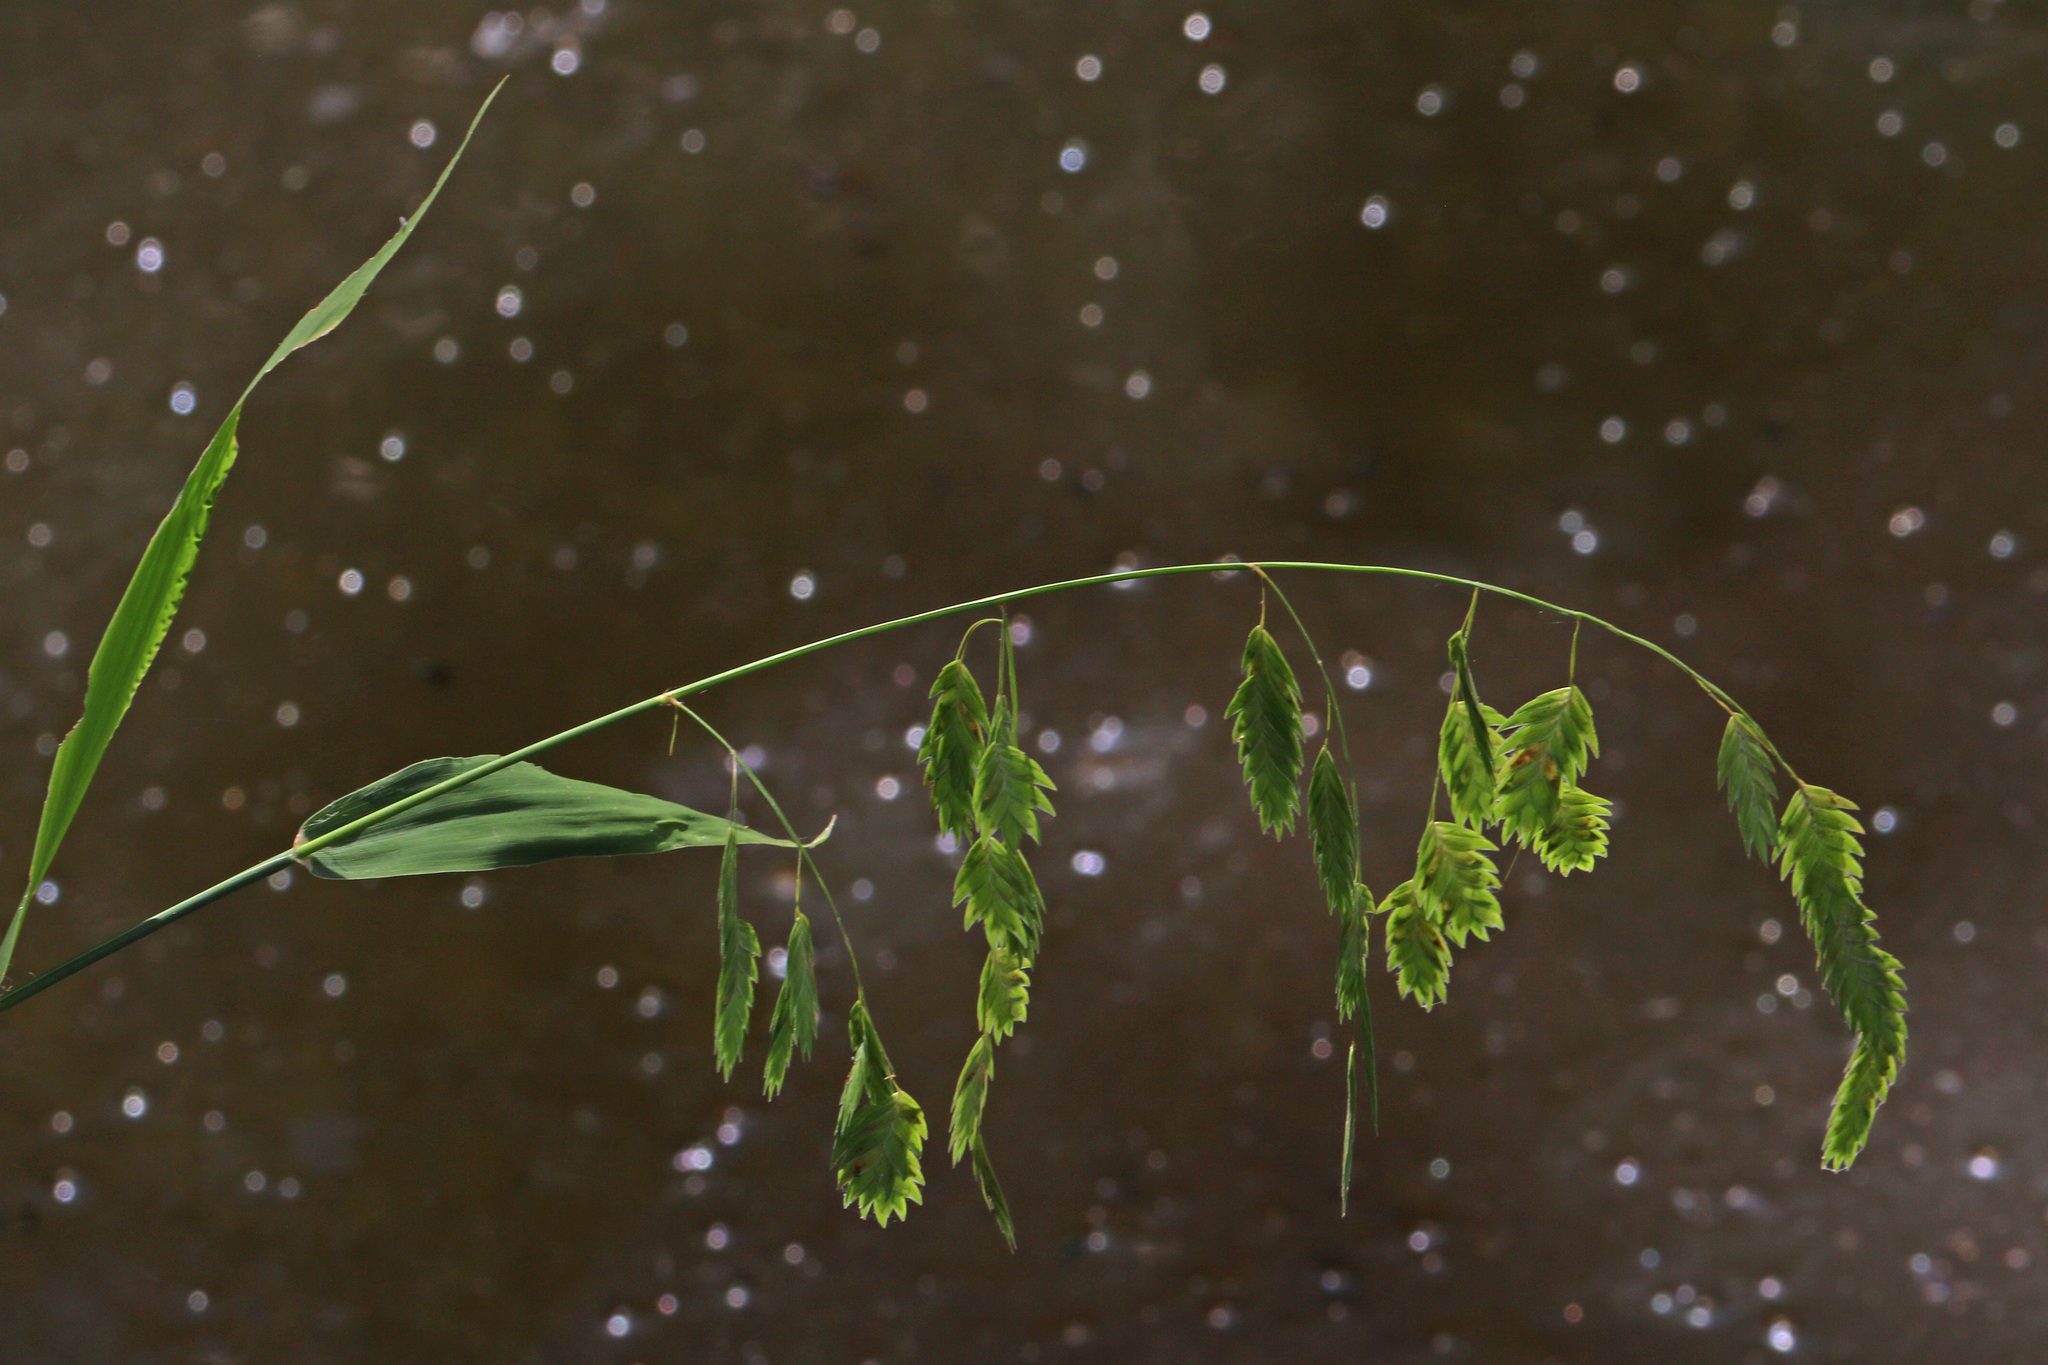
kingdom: Plantae
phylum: Tracheophyta
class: Liliopsida
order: Poales
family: Poaceae
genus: Chasmanthium
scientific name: Chasmanthium latifolium
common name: Broad-leaved chasmanthium
